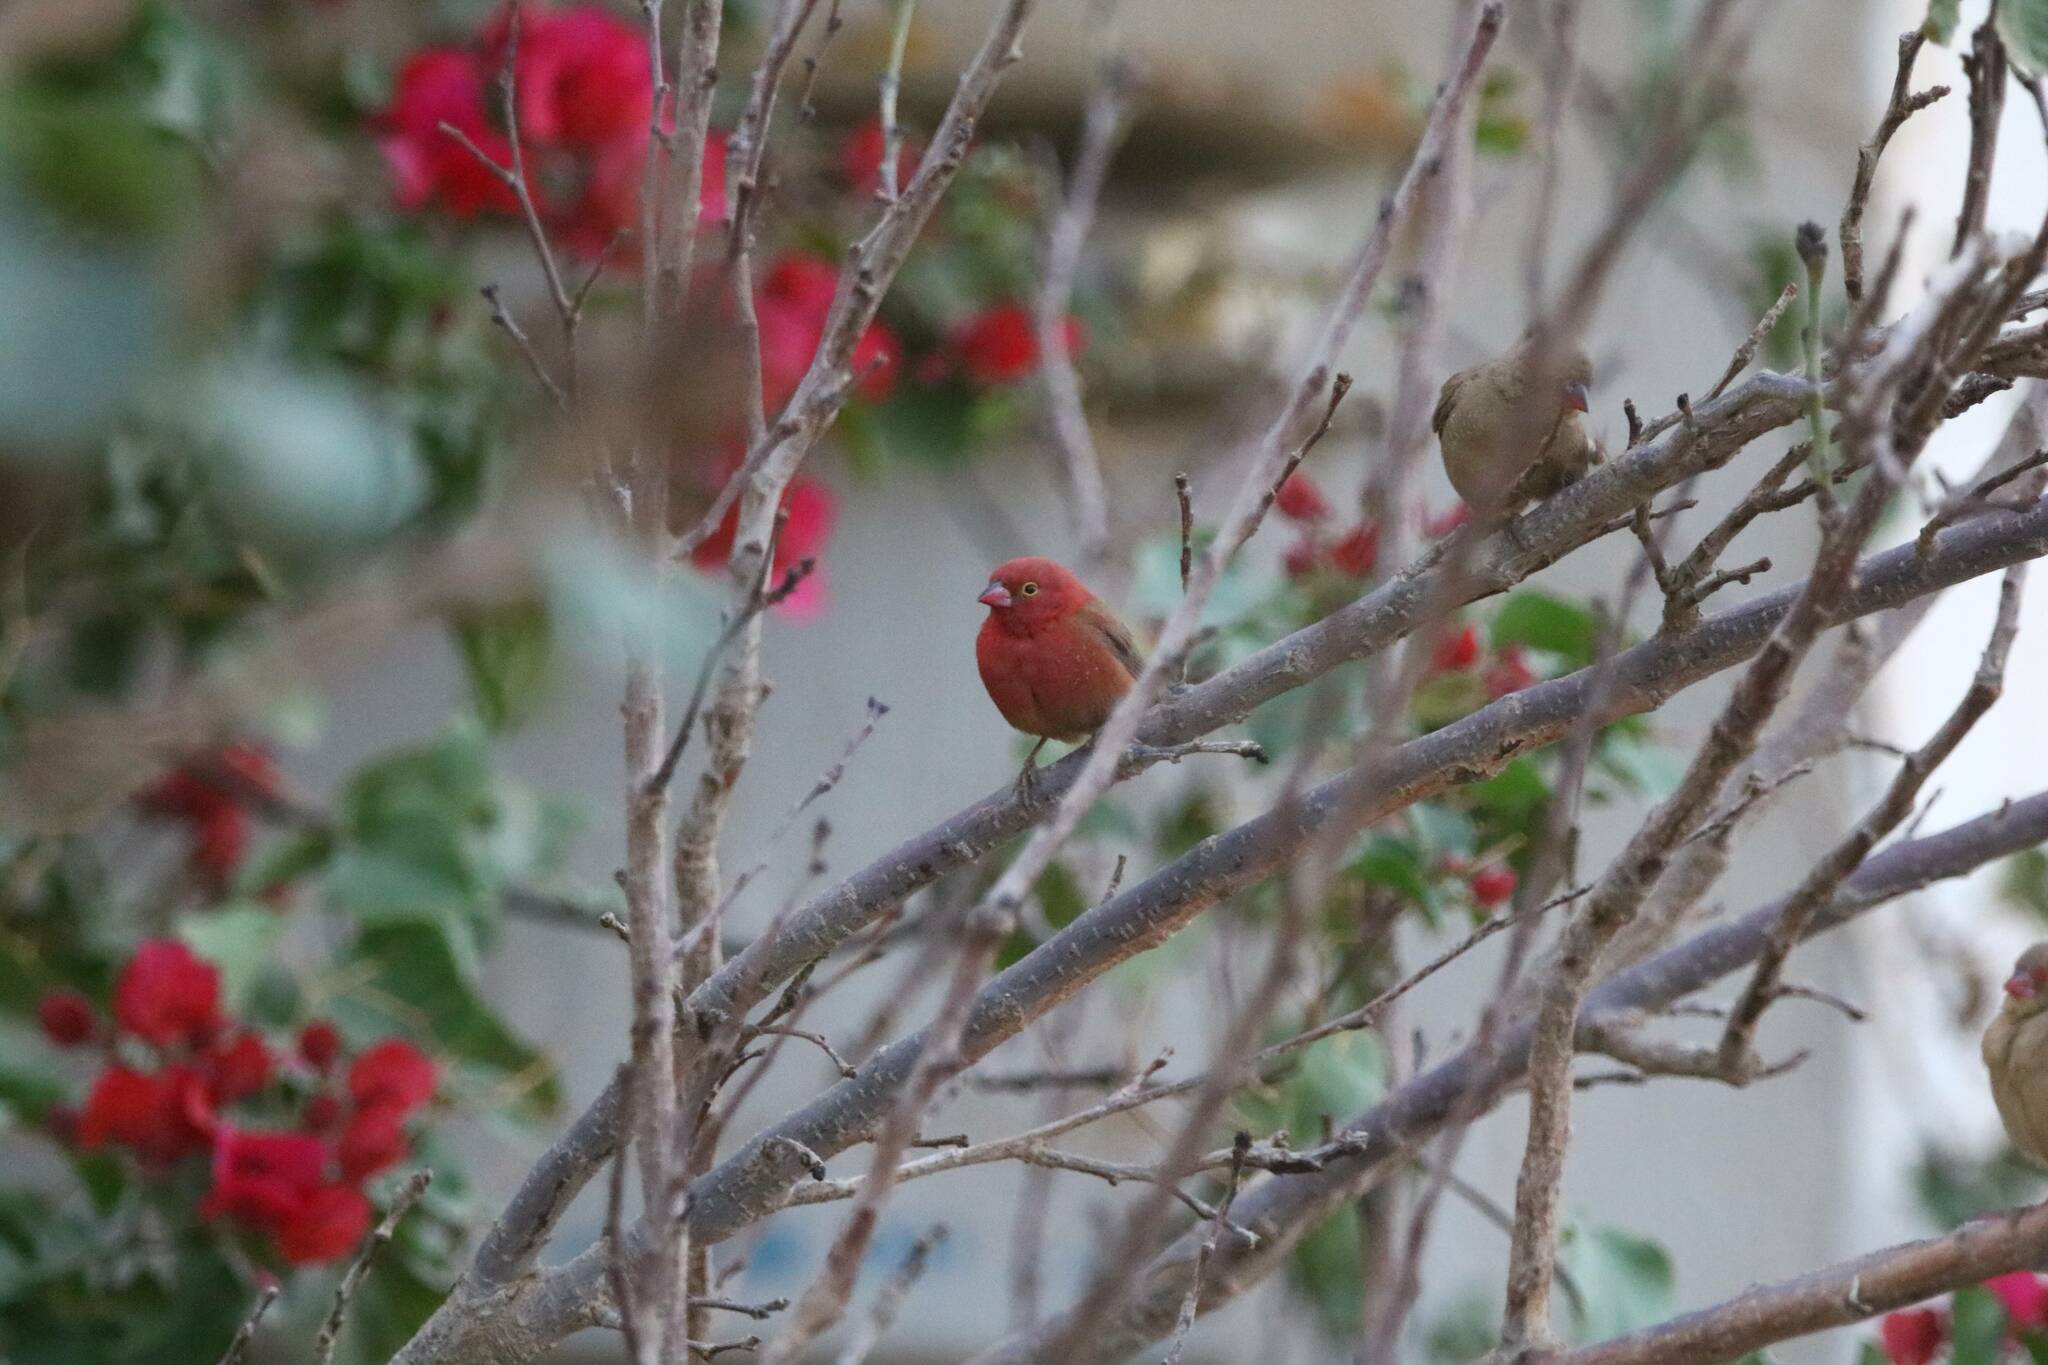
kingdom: Animalia
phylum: Chordata
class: Aves
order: Passeriformes
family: Estrildidae
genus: Lagonosticta
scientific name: Lagonosticta senegala
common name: Red-billed firefinch
